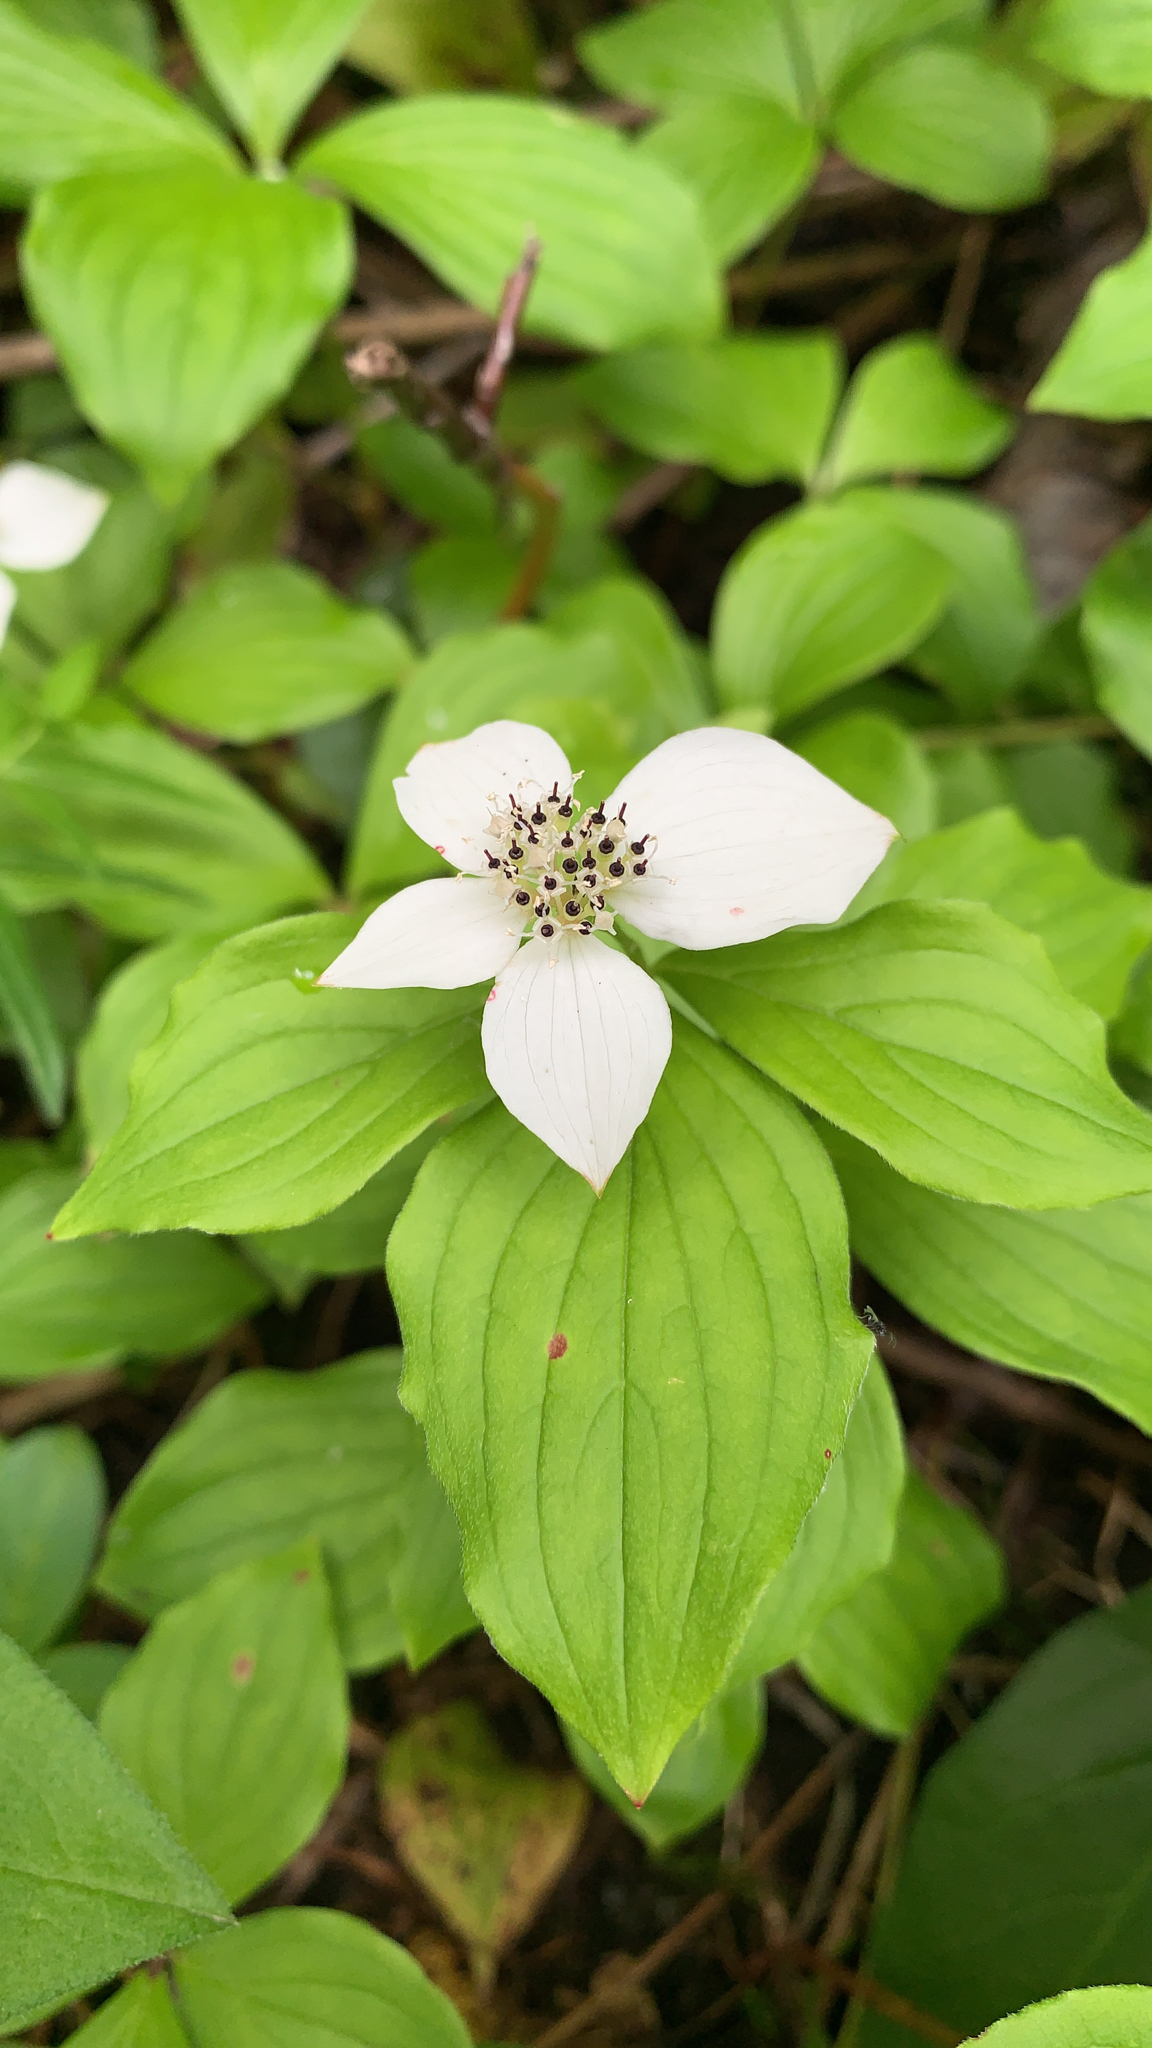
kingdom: Plantae
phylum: Tracheophyta
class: Magnoliopsida
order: Cornales
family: Cornaceae
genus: Cornus
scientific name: Cornus canadensis
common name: Creeping dogwood
